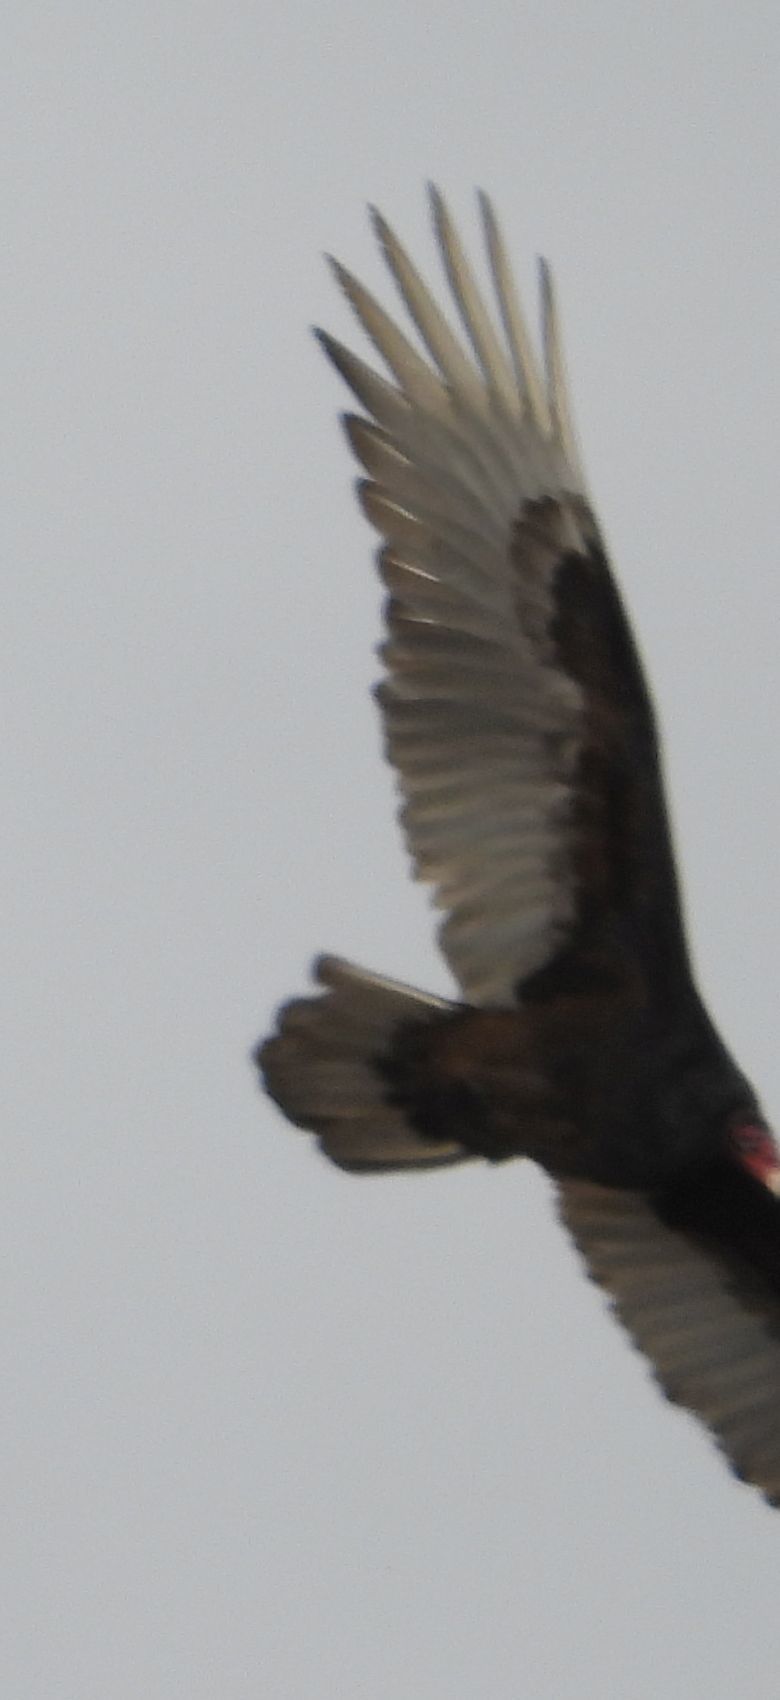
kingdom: Animalia
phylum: Chordata
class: Aves
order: Accipitriformes
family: Cathartidae
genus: Cathartes
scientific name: Cathartes aura
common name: Turkey vulture
